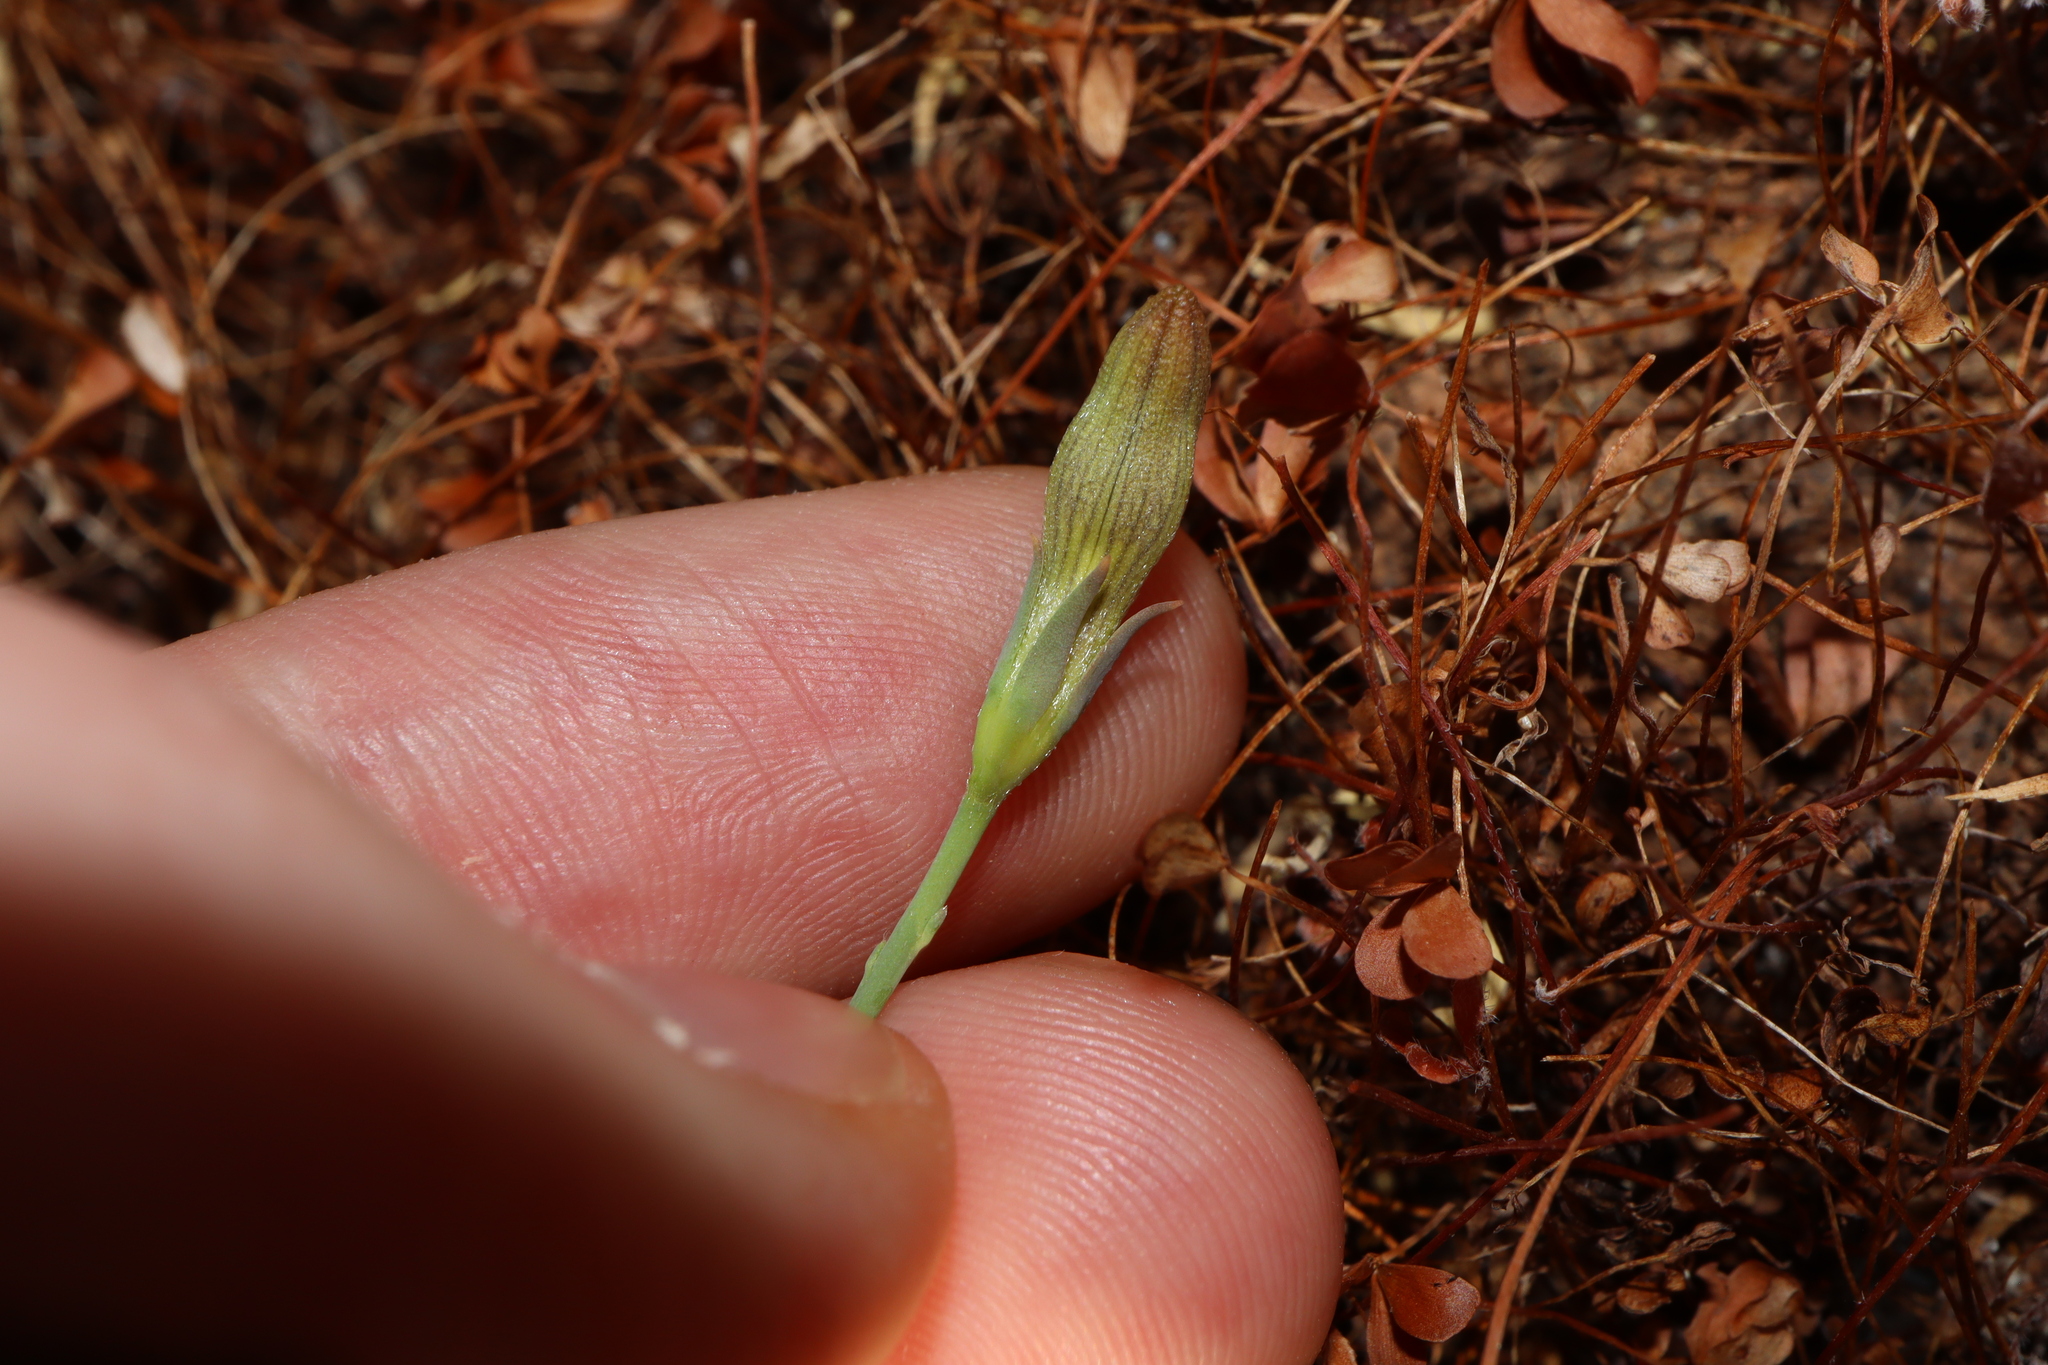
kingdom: Plantae
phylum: Tracheophyta
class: Magnoliopsida
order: Asterales
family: Goodeniaceae
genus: Goodenia
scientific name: Goodenia glauca
